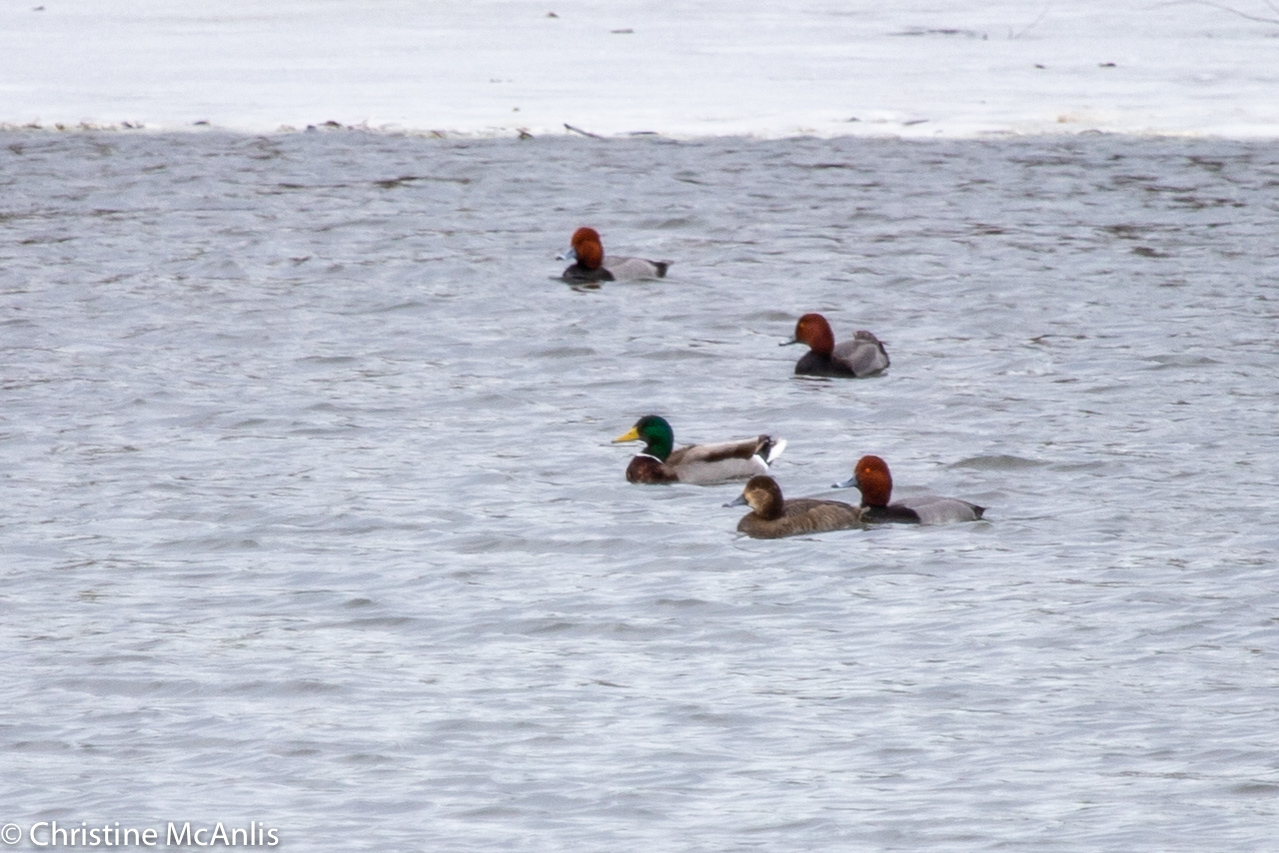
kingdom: Animalia
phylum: Chordata
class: Aves
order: Anseriformes
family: Anatidae
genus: Aythya
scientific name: Aythya americana
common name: Redhead
